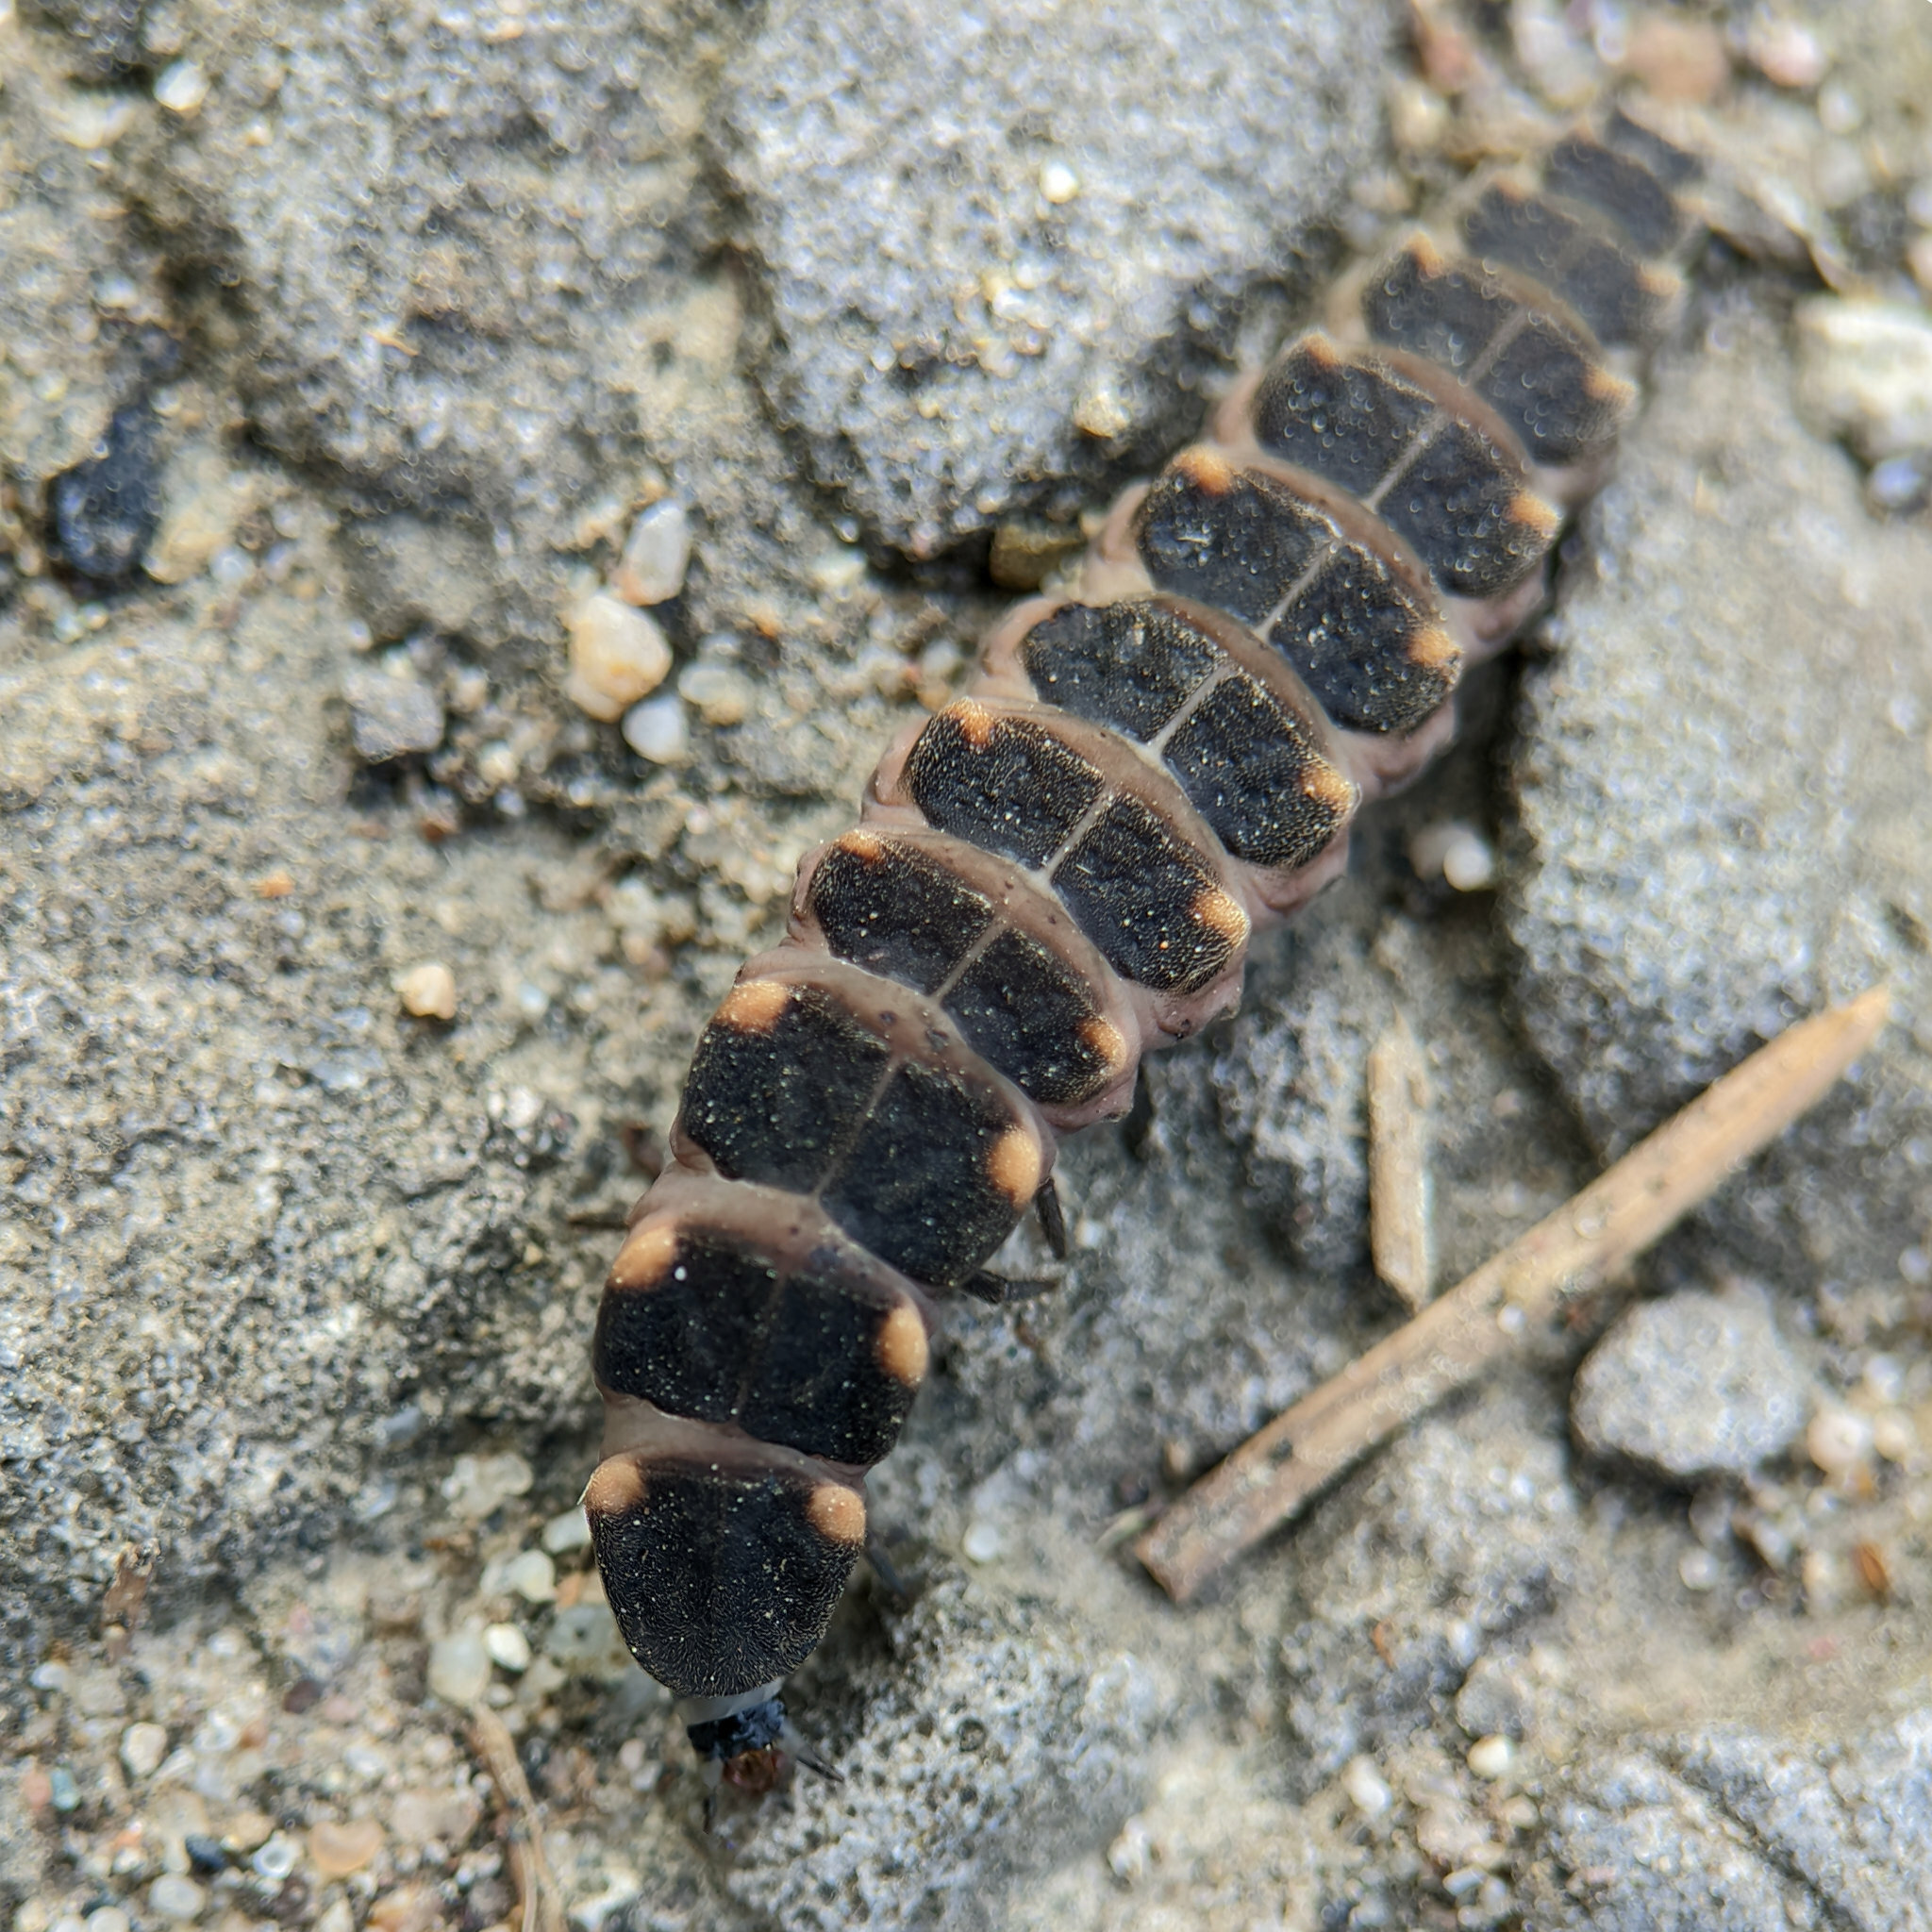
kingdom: Animalia
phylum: Arthropoda
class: Insecta
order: Coleoptera
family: Lampyridae
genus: Lampyris
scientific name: Lampyris noctiluca
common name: Glow-worm
